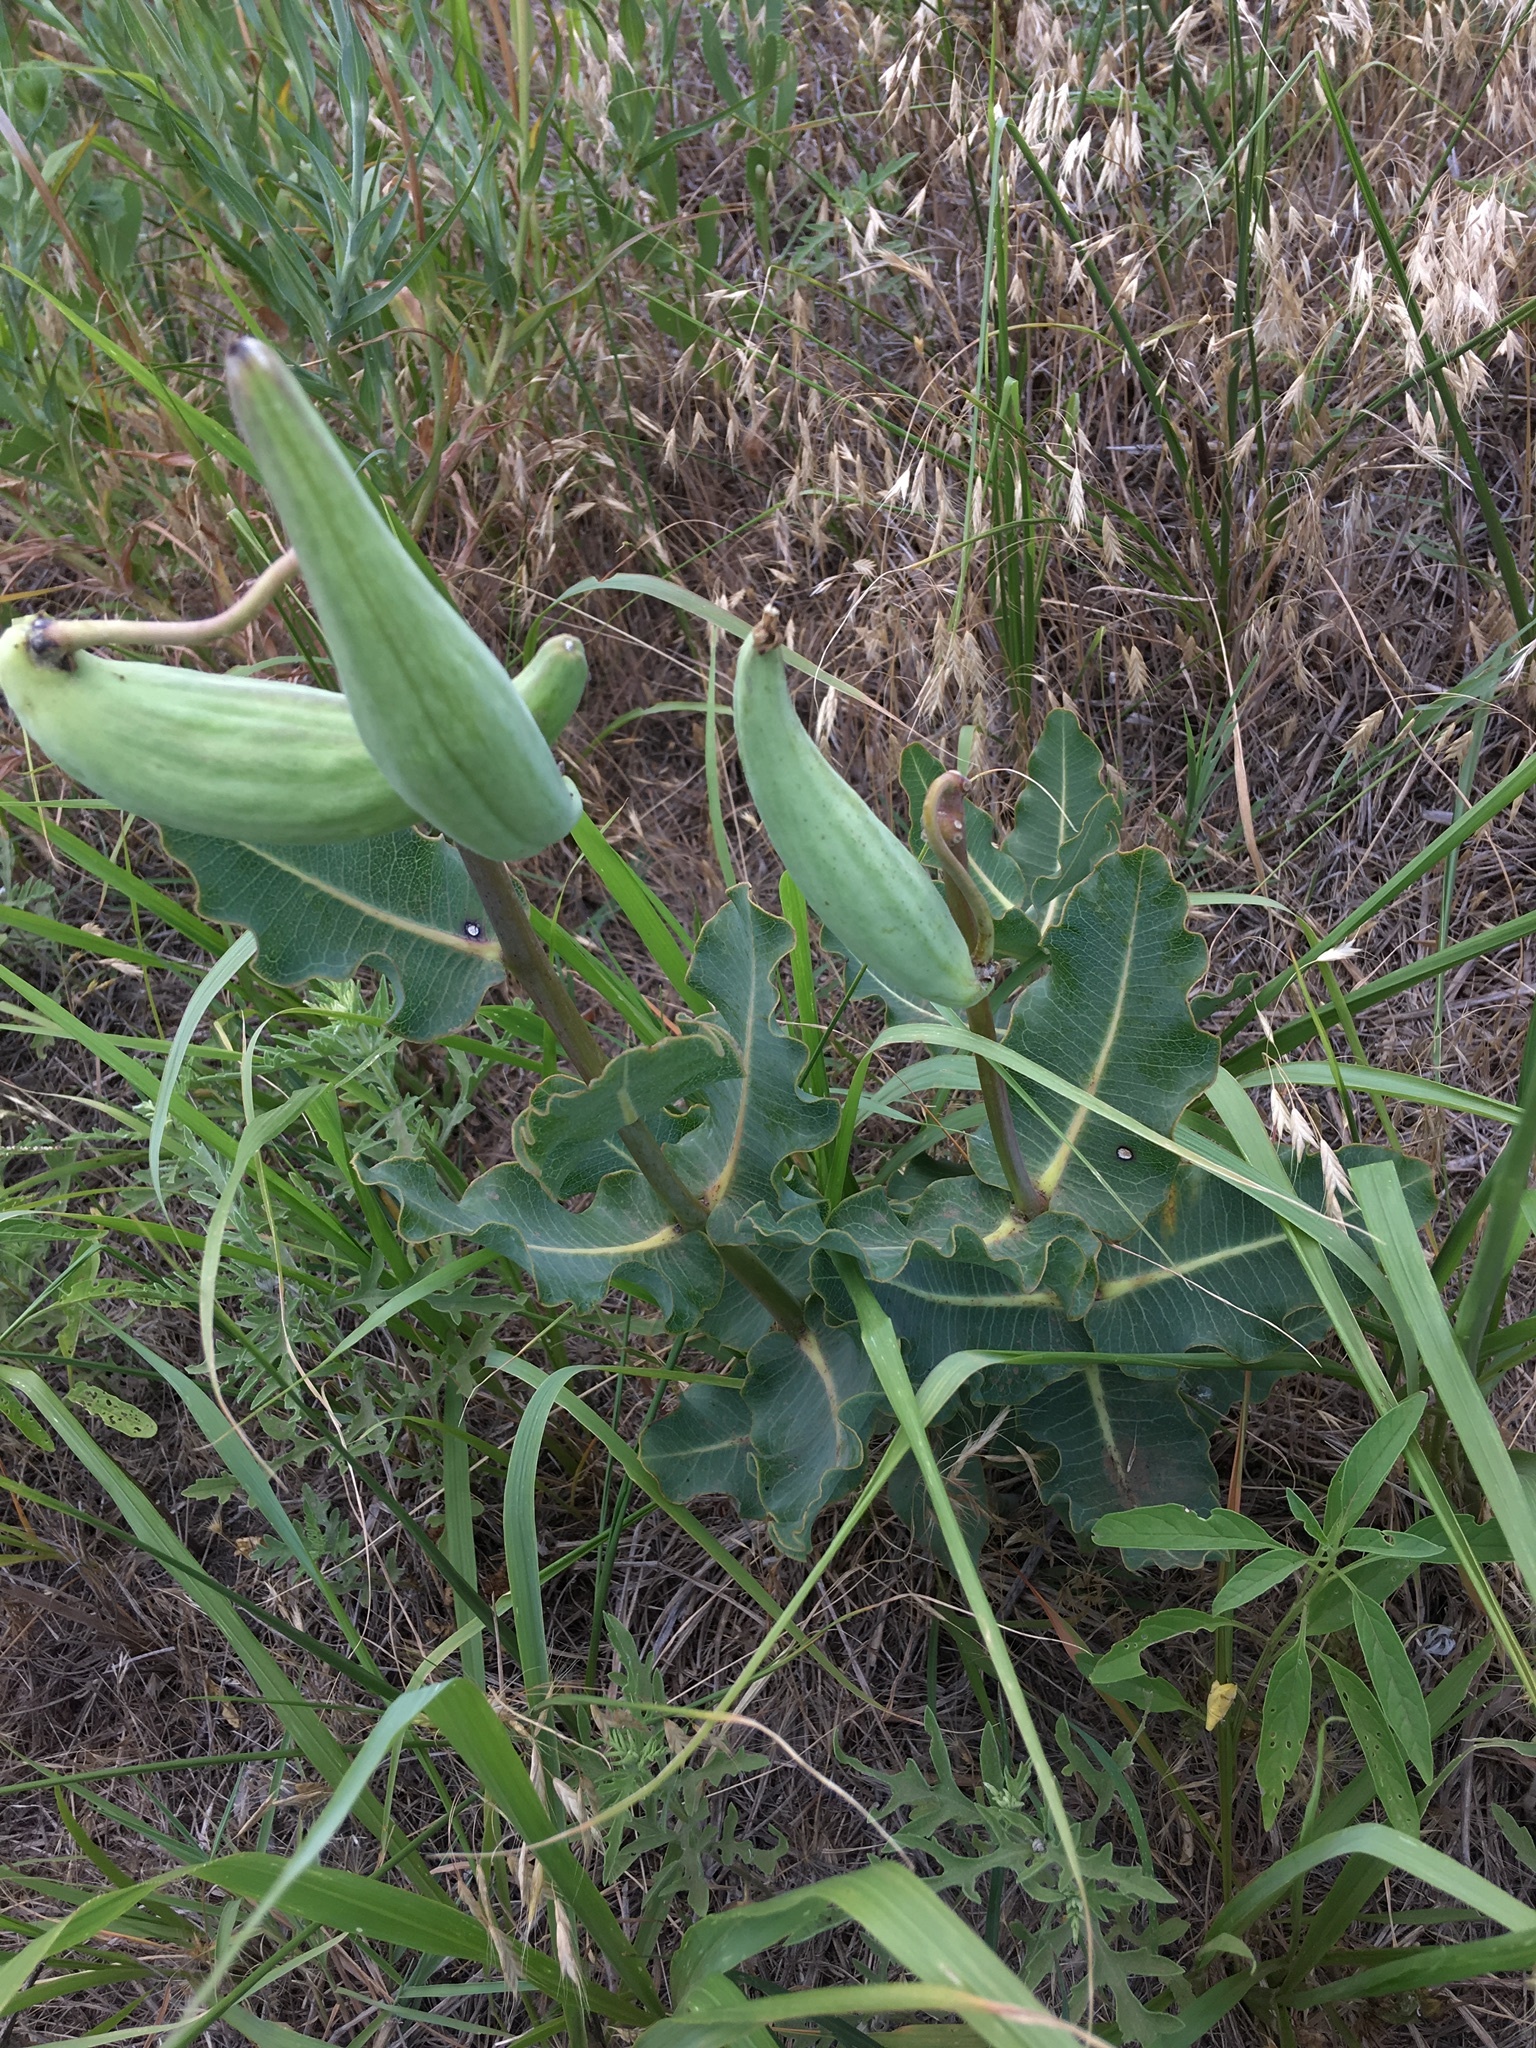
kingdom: Plantae
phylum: Tracheophyta
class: Magnoliopsida
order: Gentianales
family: Apocynaceae
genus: Asclepias
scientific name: Asclepias amplexicaulis
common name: Blunt-leaf milkweed
